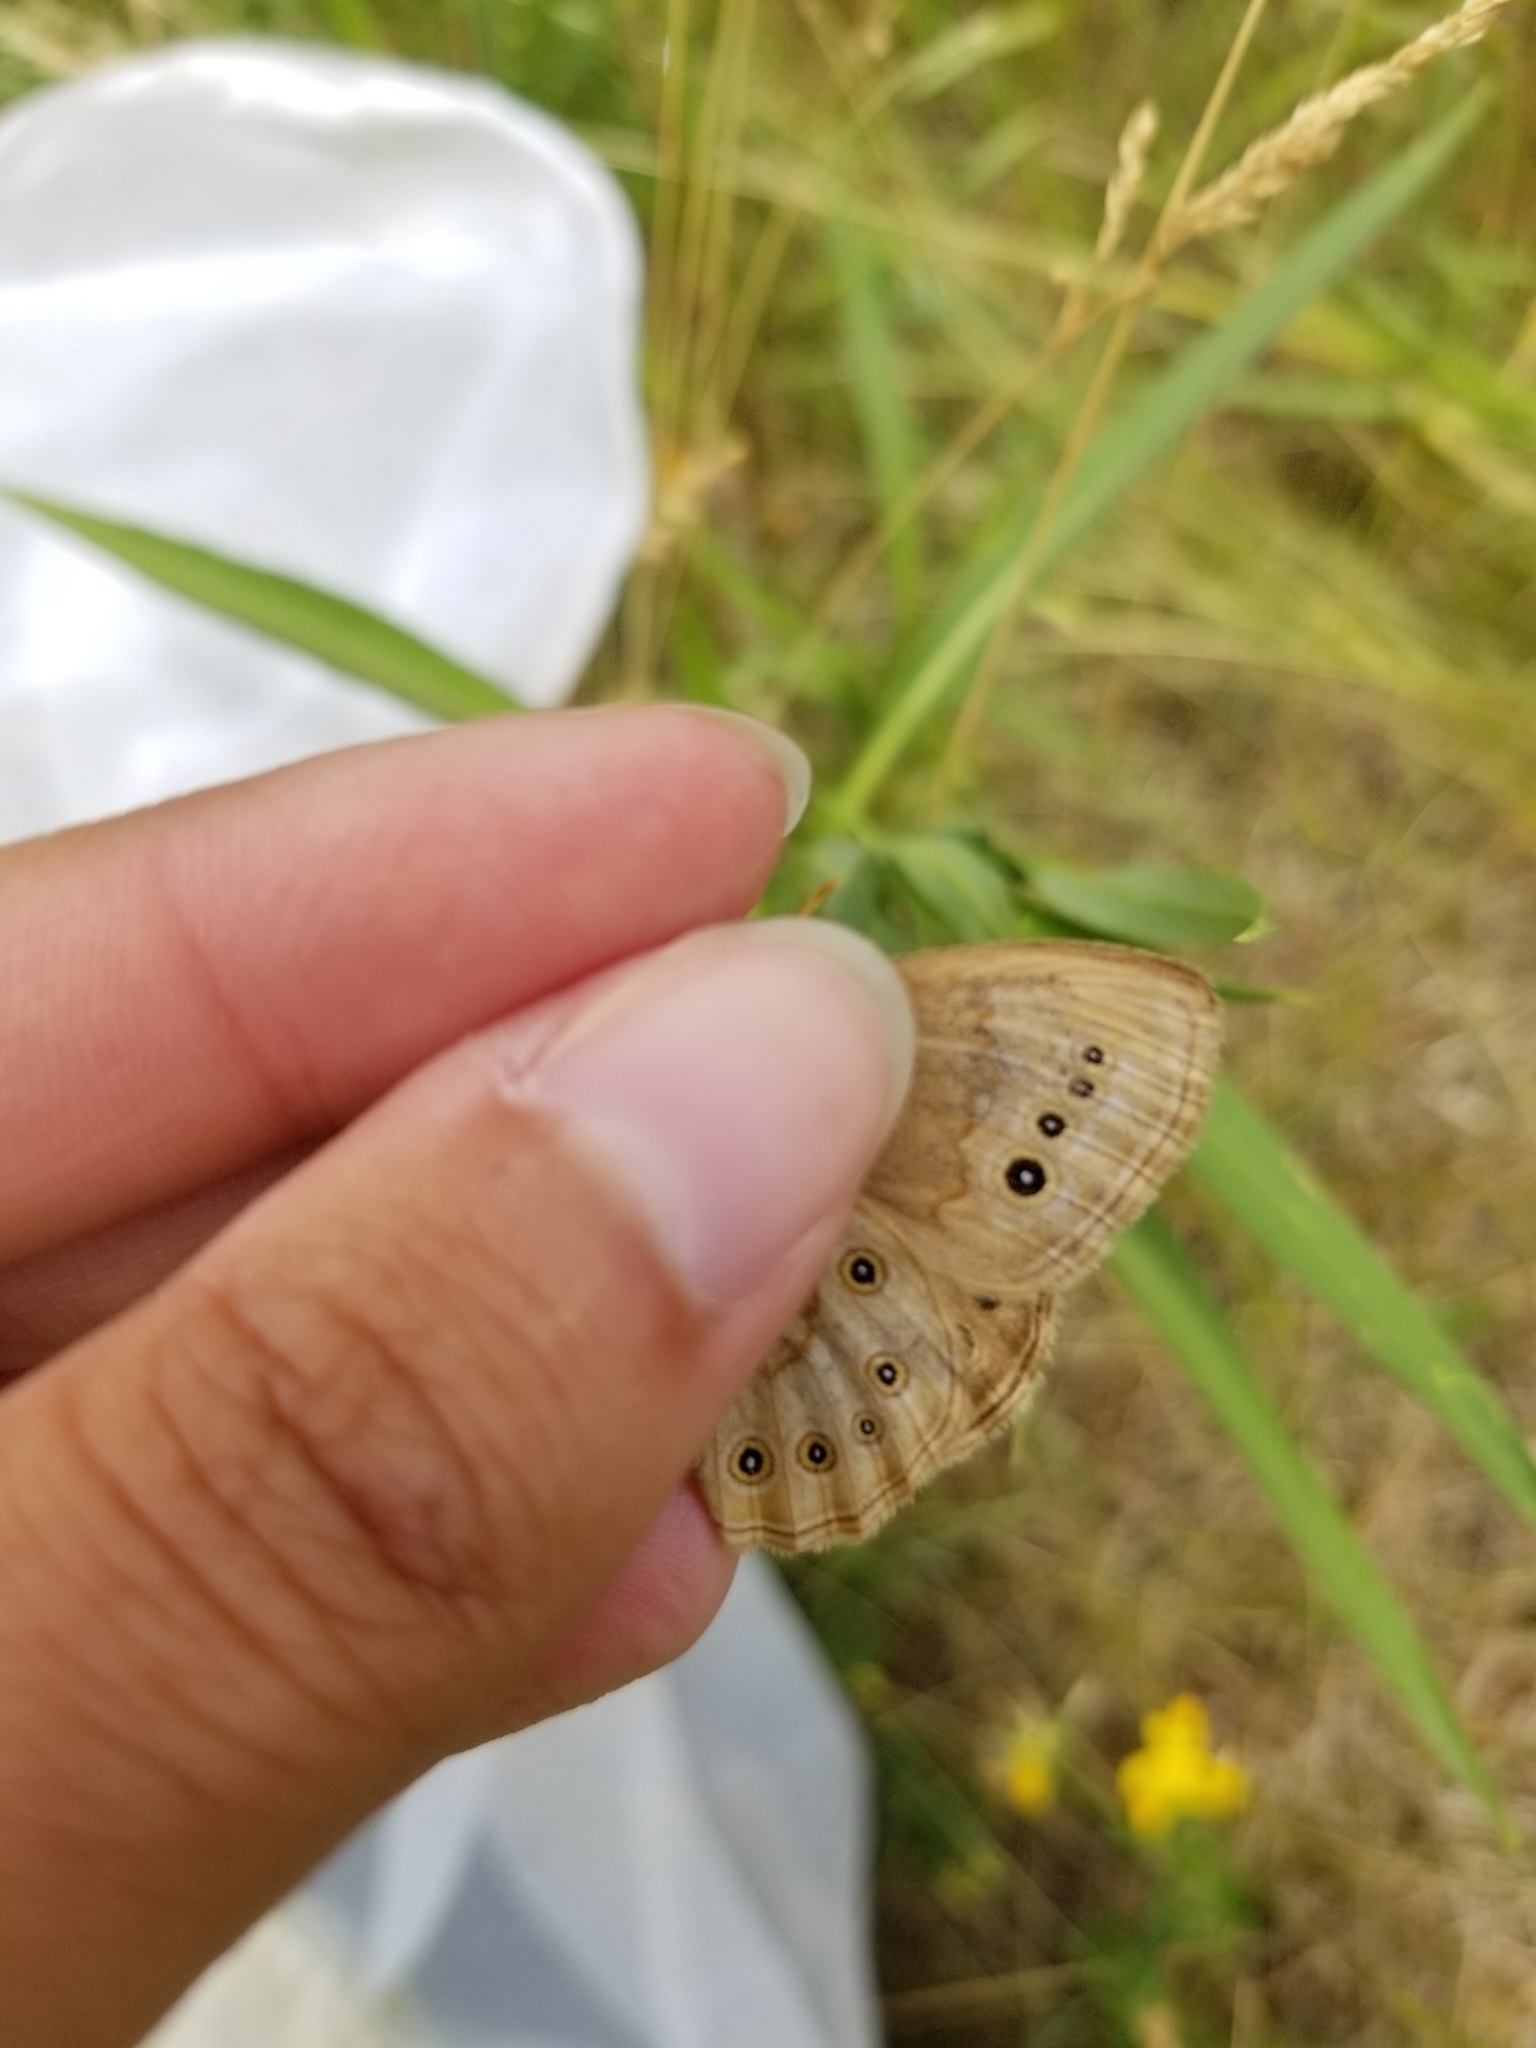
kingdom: Animalia
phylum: Arthropoda
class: Insecta
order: Lepidoptera
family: Nymphalidae
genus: Lethe
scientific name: Lethe eurydice
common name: Eyed brown
